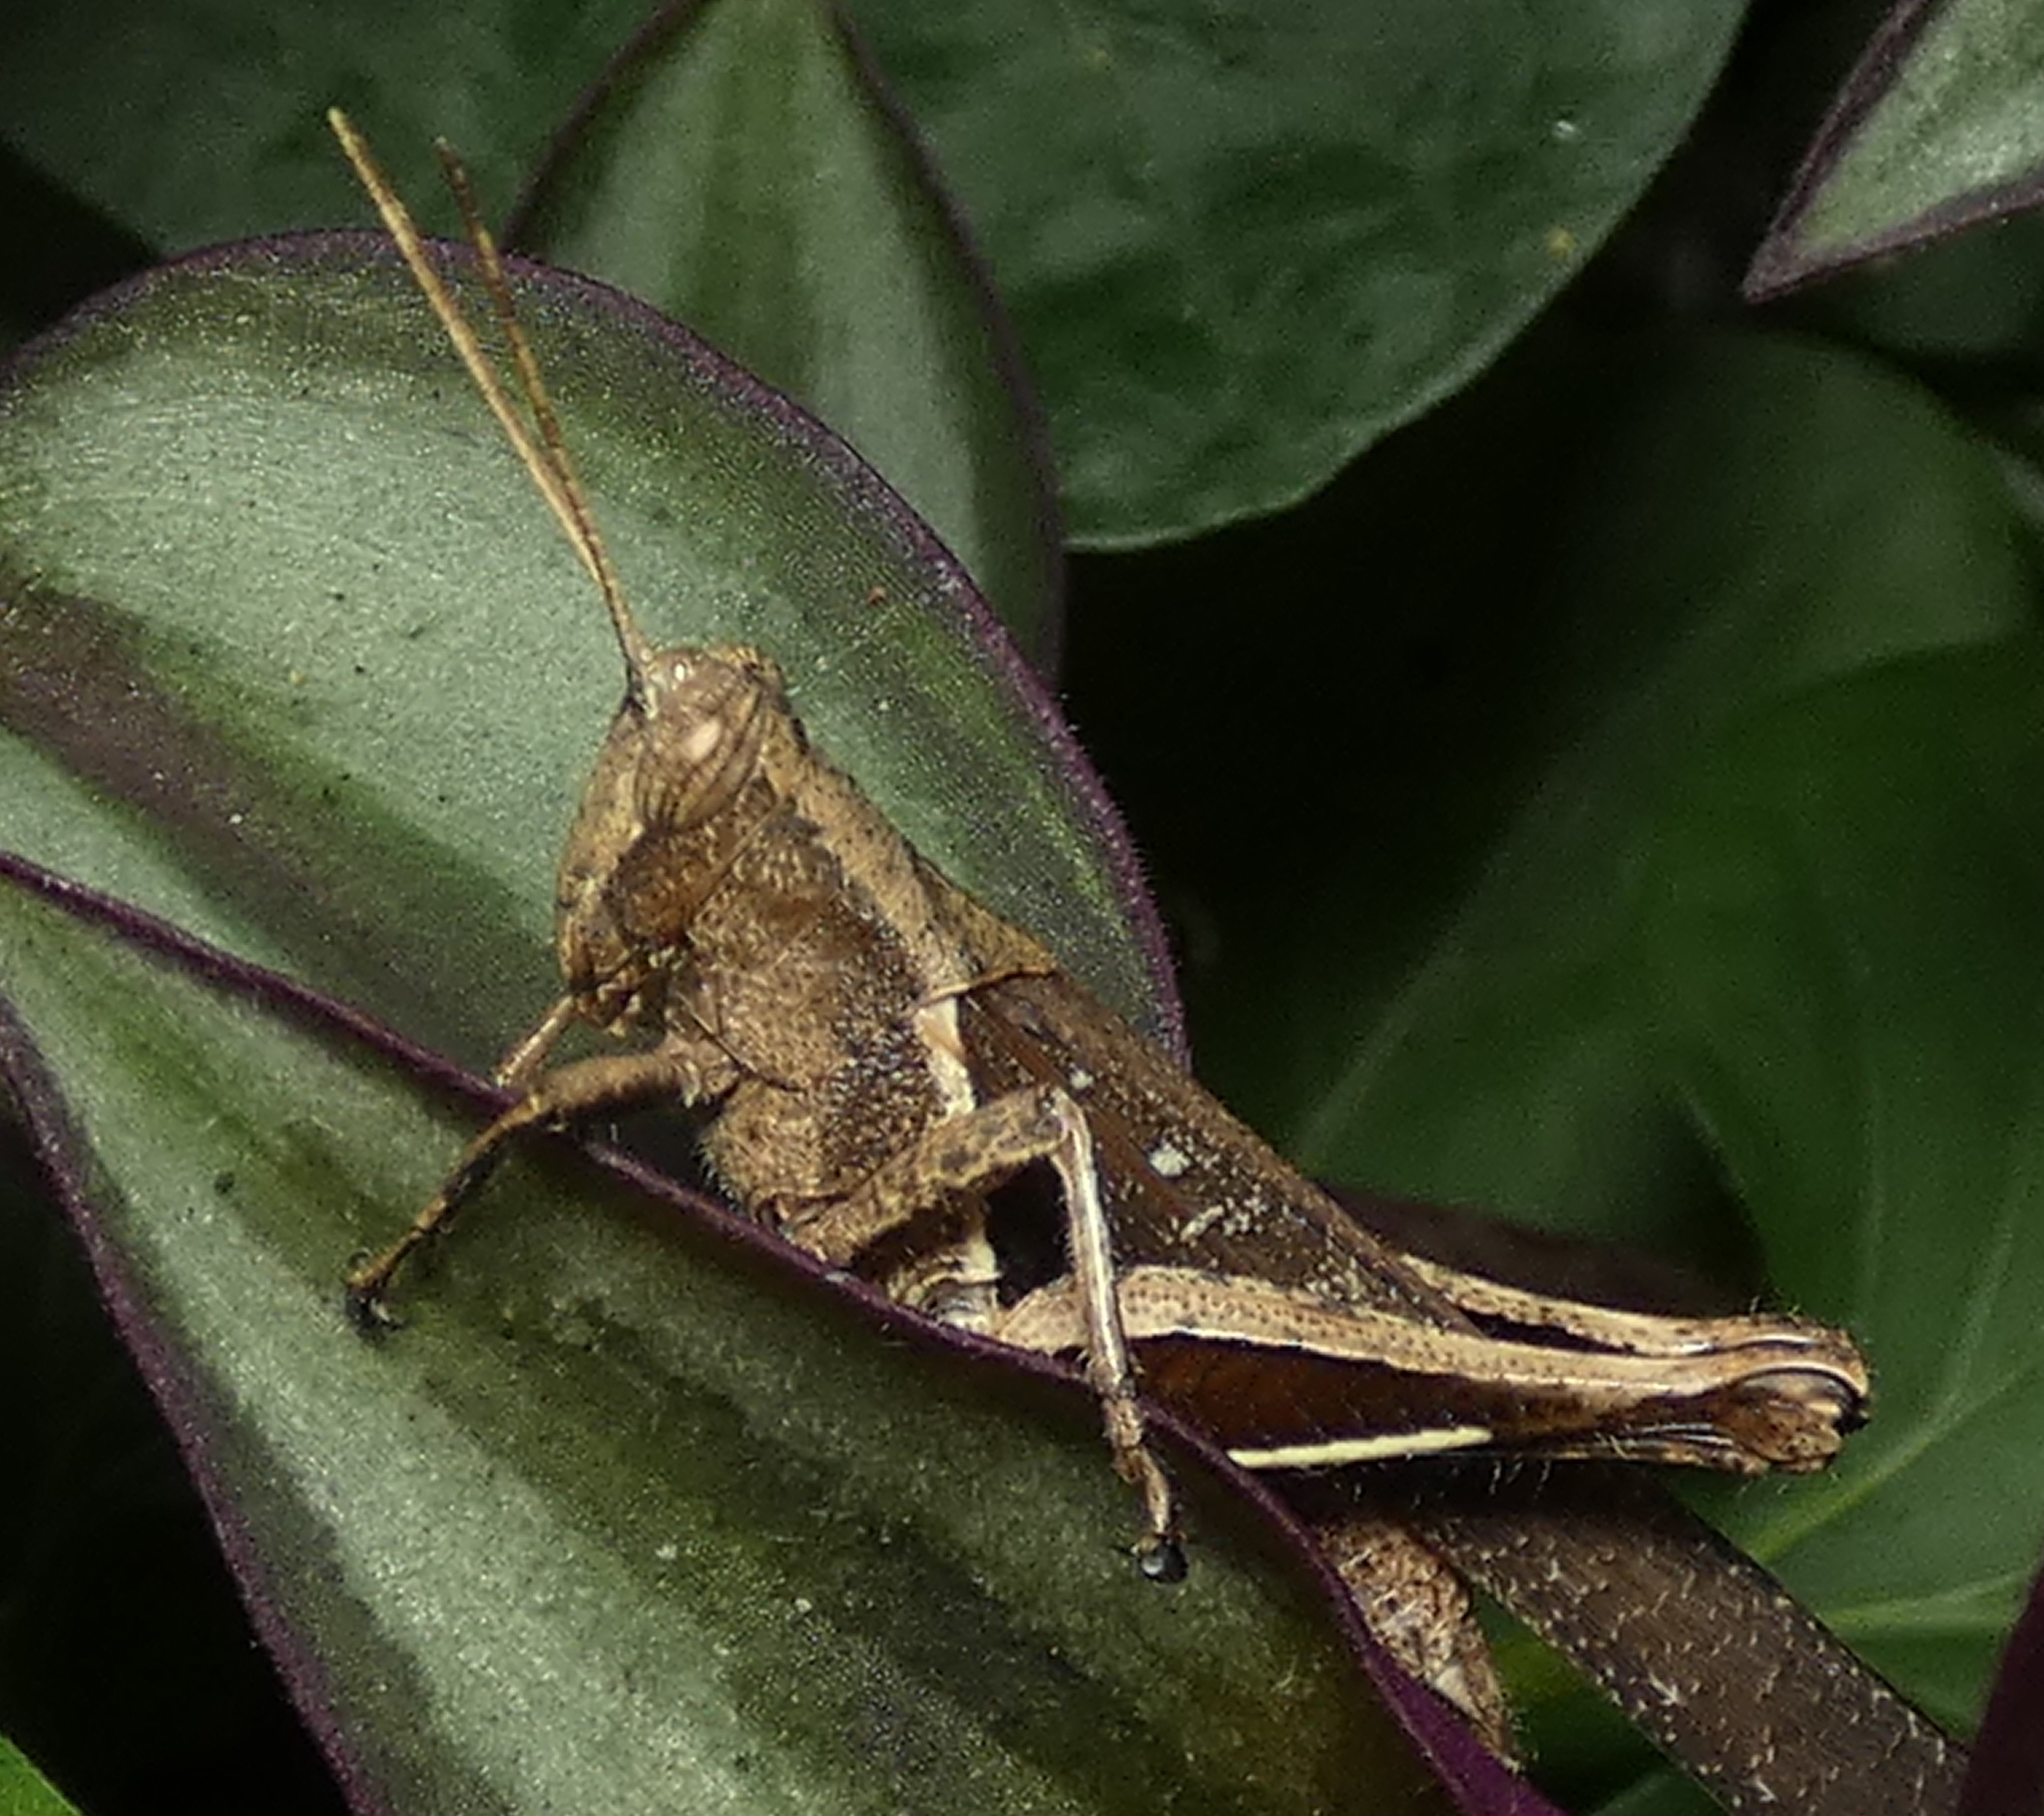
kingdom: Animalia
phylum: Arthropoda
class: Insecta
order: Orthoptera
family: Acrididae
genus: Abracris
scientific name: Abracris flavolineata
